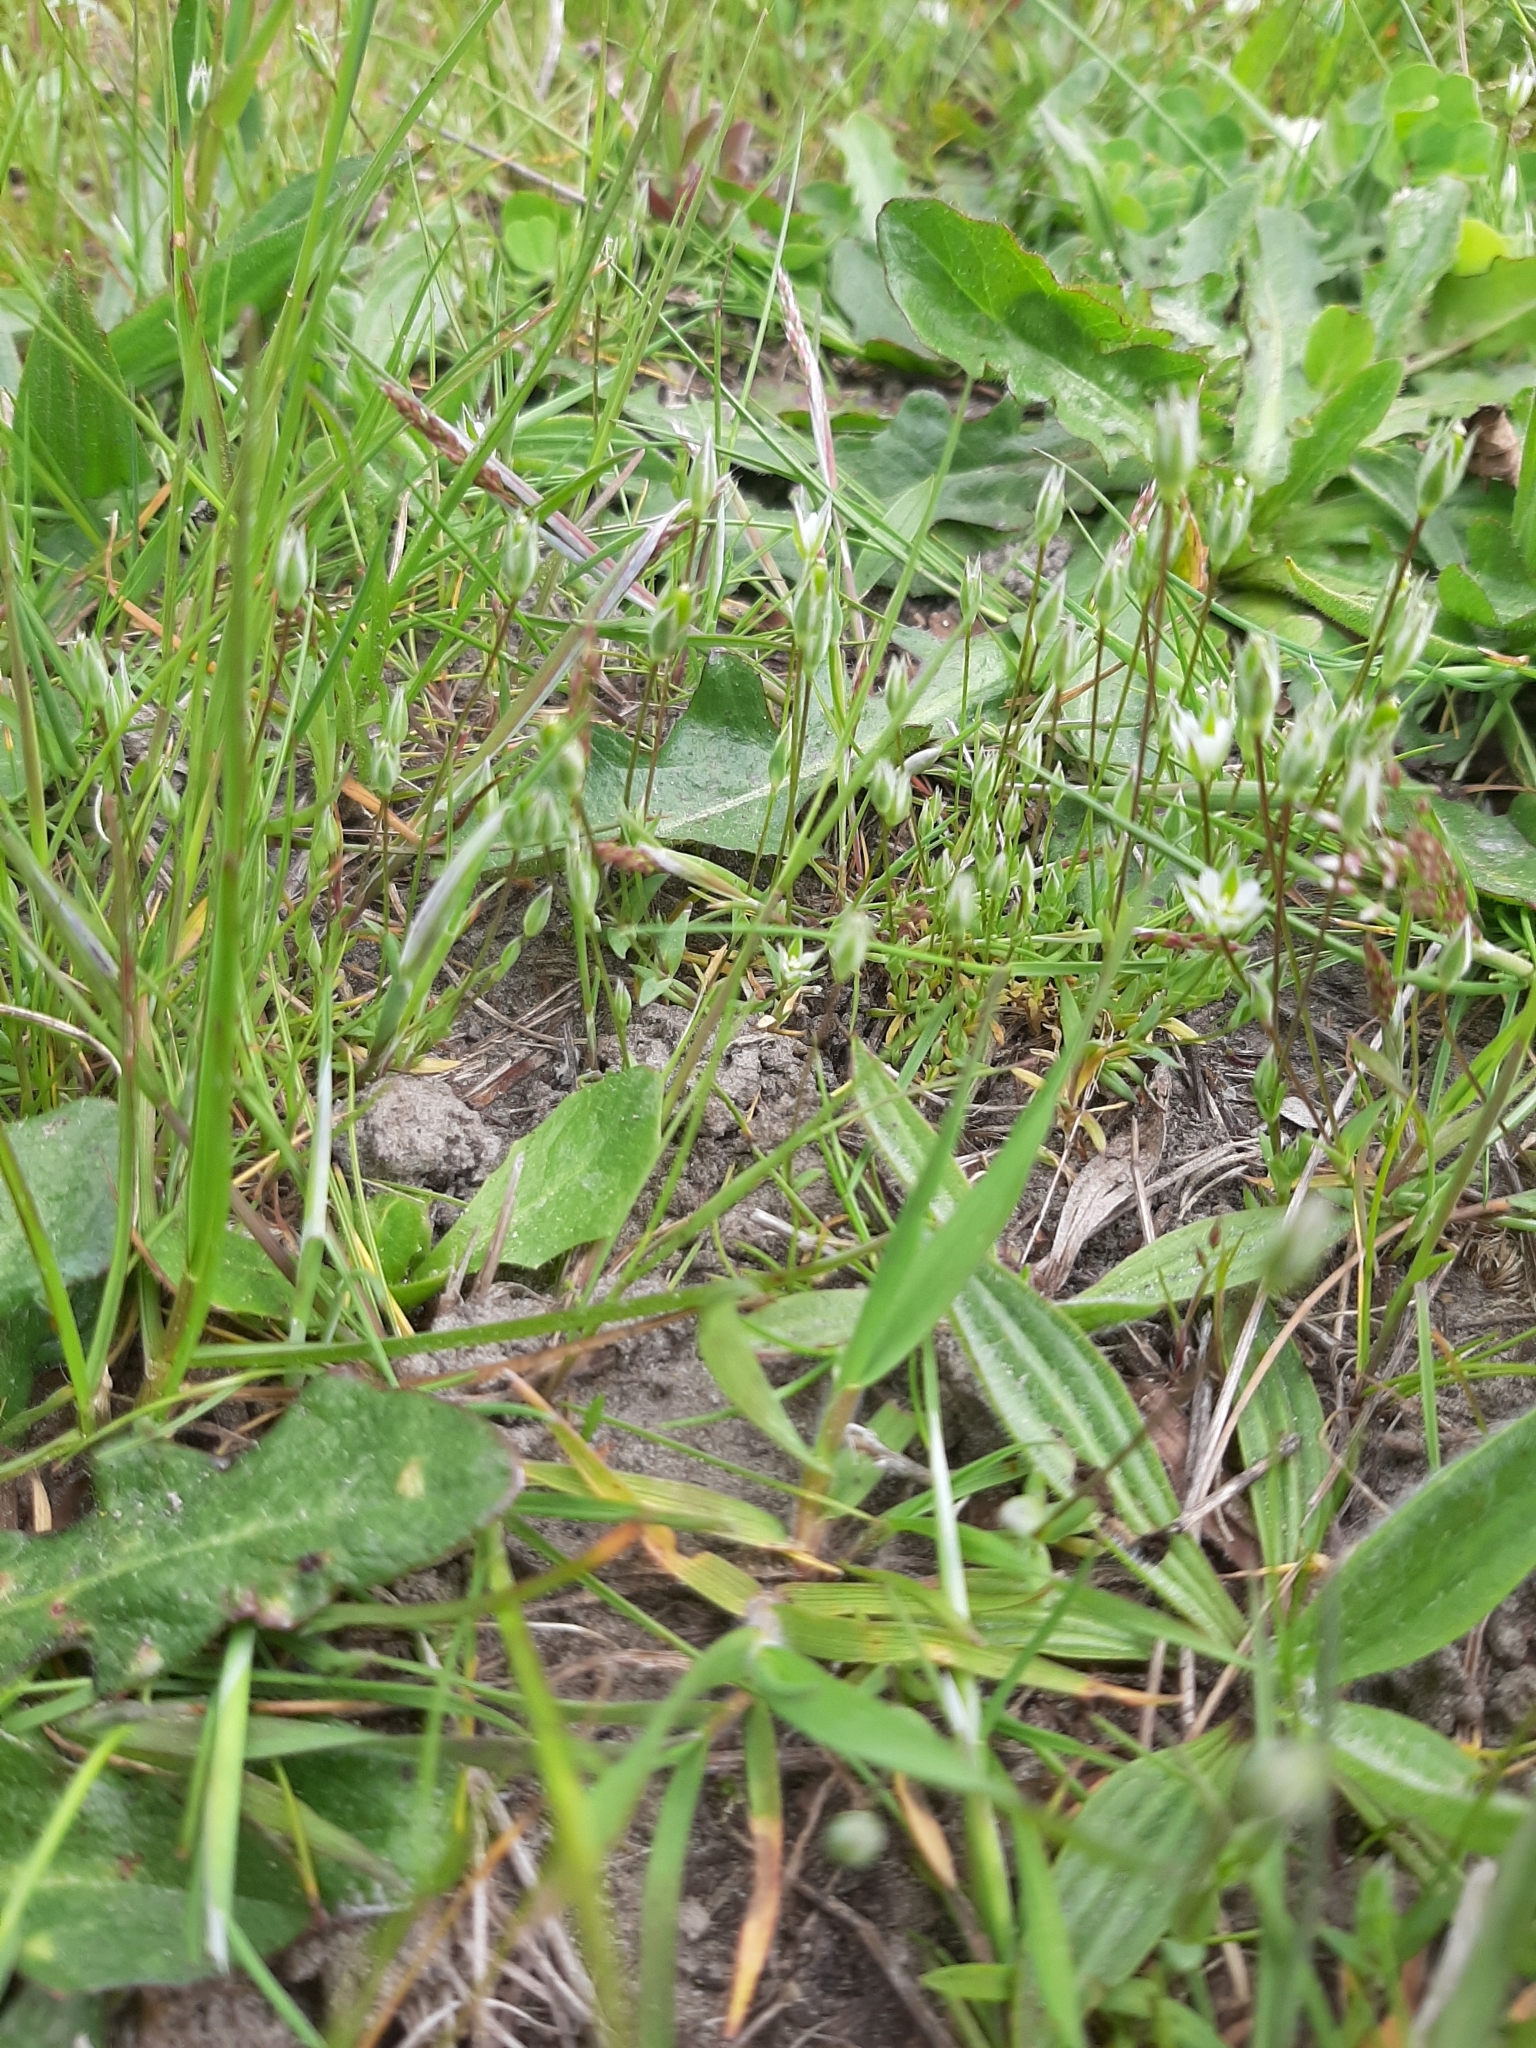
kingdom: Plantae
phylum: Tracheophyta
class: Magnoliopsida
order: Caryophyllales
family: Caryophyllaceae
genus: Moenchia
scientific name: Moenchia erecta
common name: Upright chickweed
